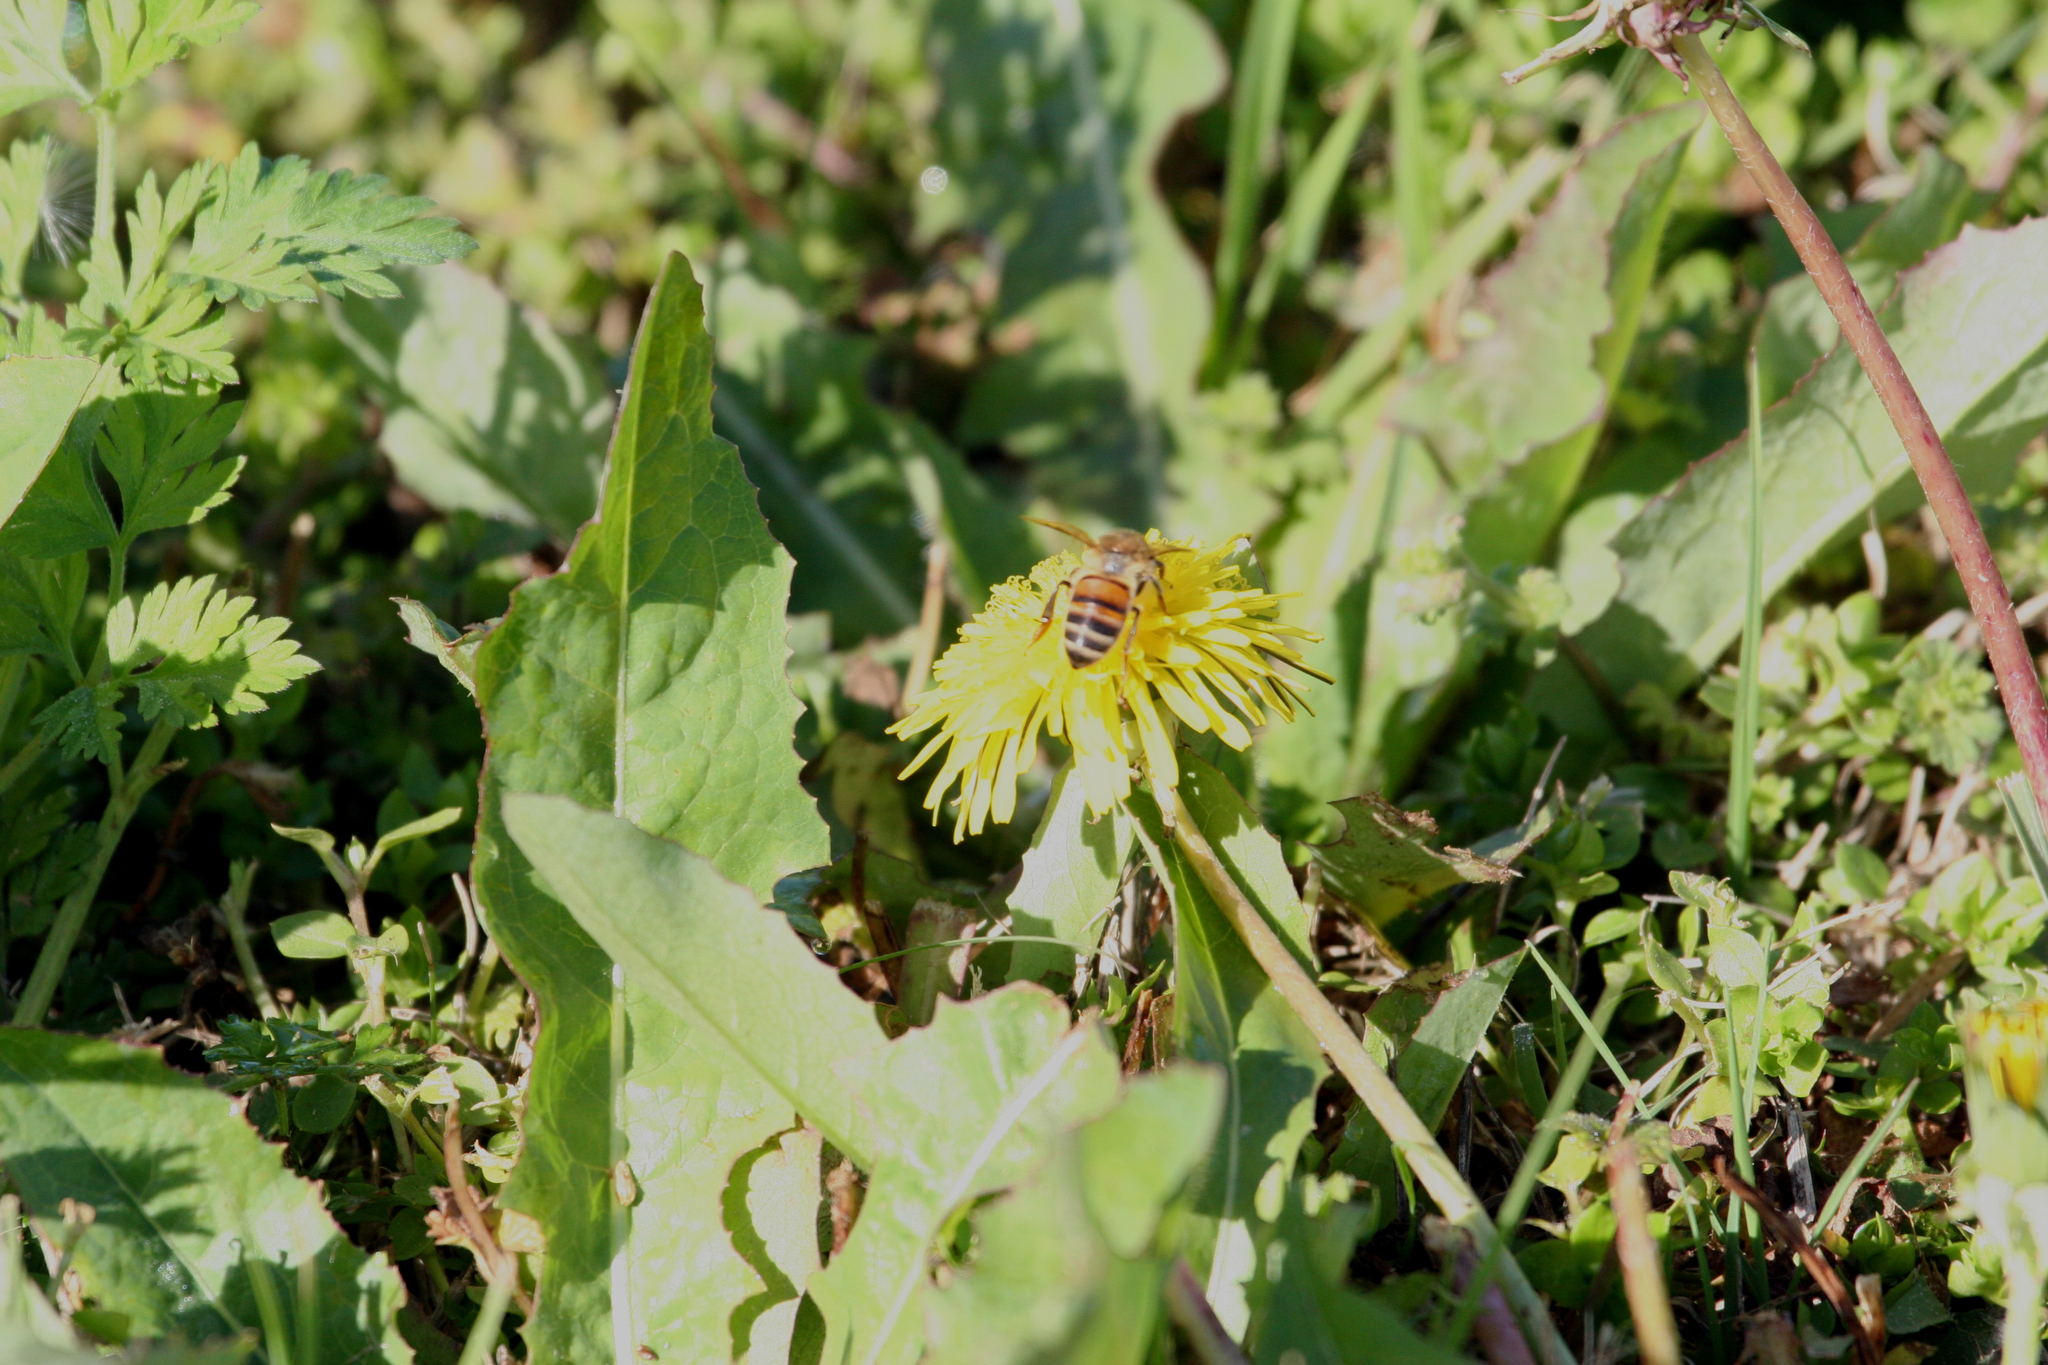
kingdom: Animalia
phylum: Arthropoda
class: Insecta
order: Hymenoptera
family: Apidae
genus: Apis
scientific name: Apis mellifera
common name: Honey bee
